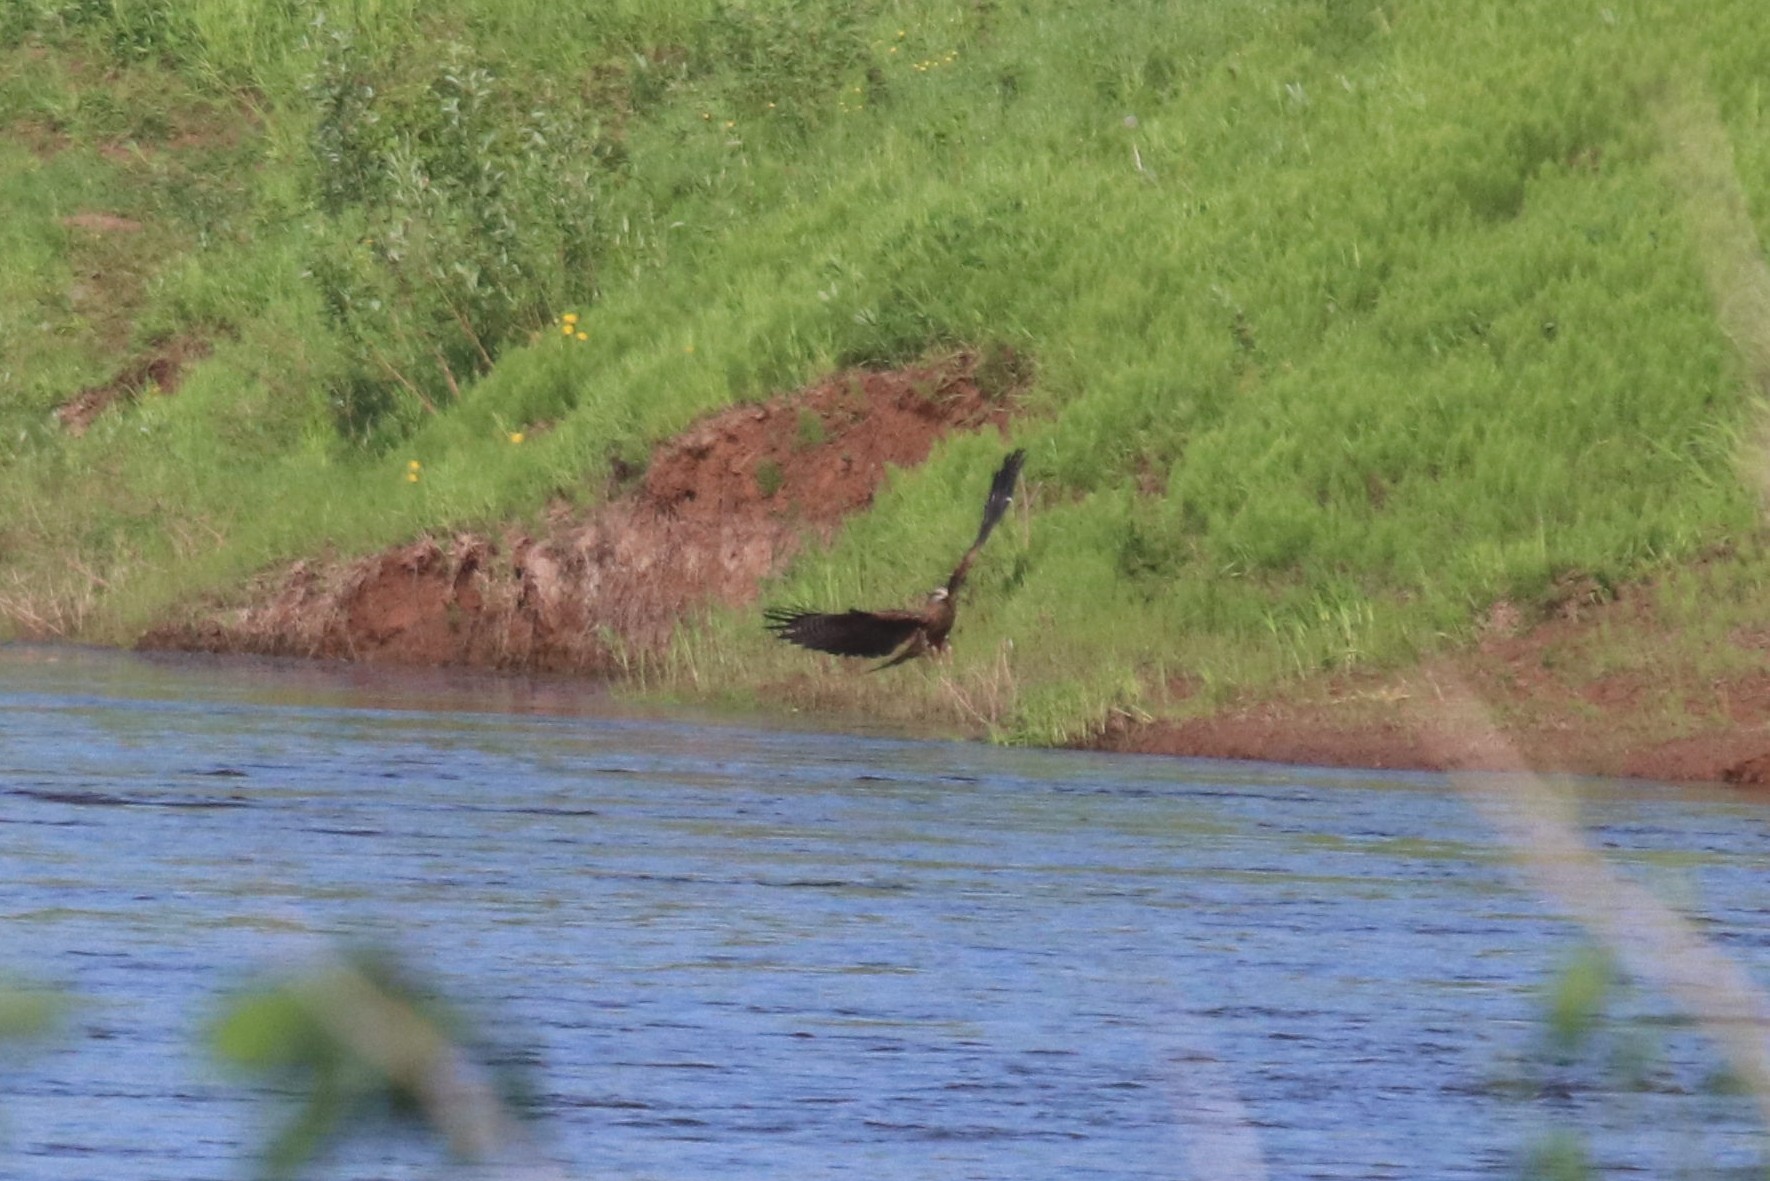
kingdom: Animalia
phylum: Chordata
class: Aves
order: Accipitriformes
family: Accipitridae
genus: Milvus
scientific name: Milvus migrans
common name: Black kite
